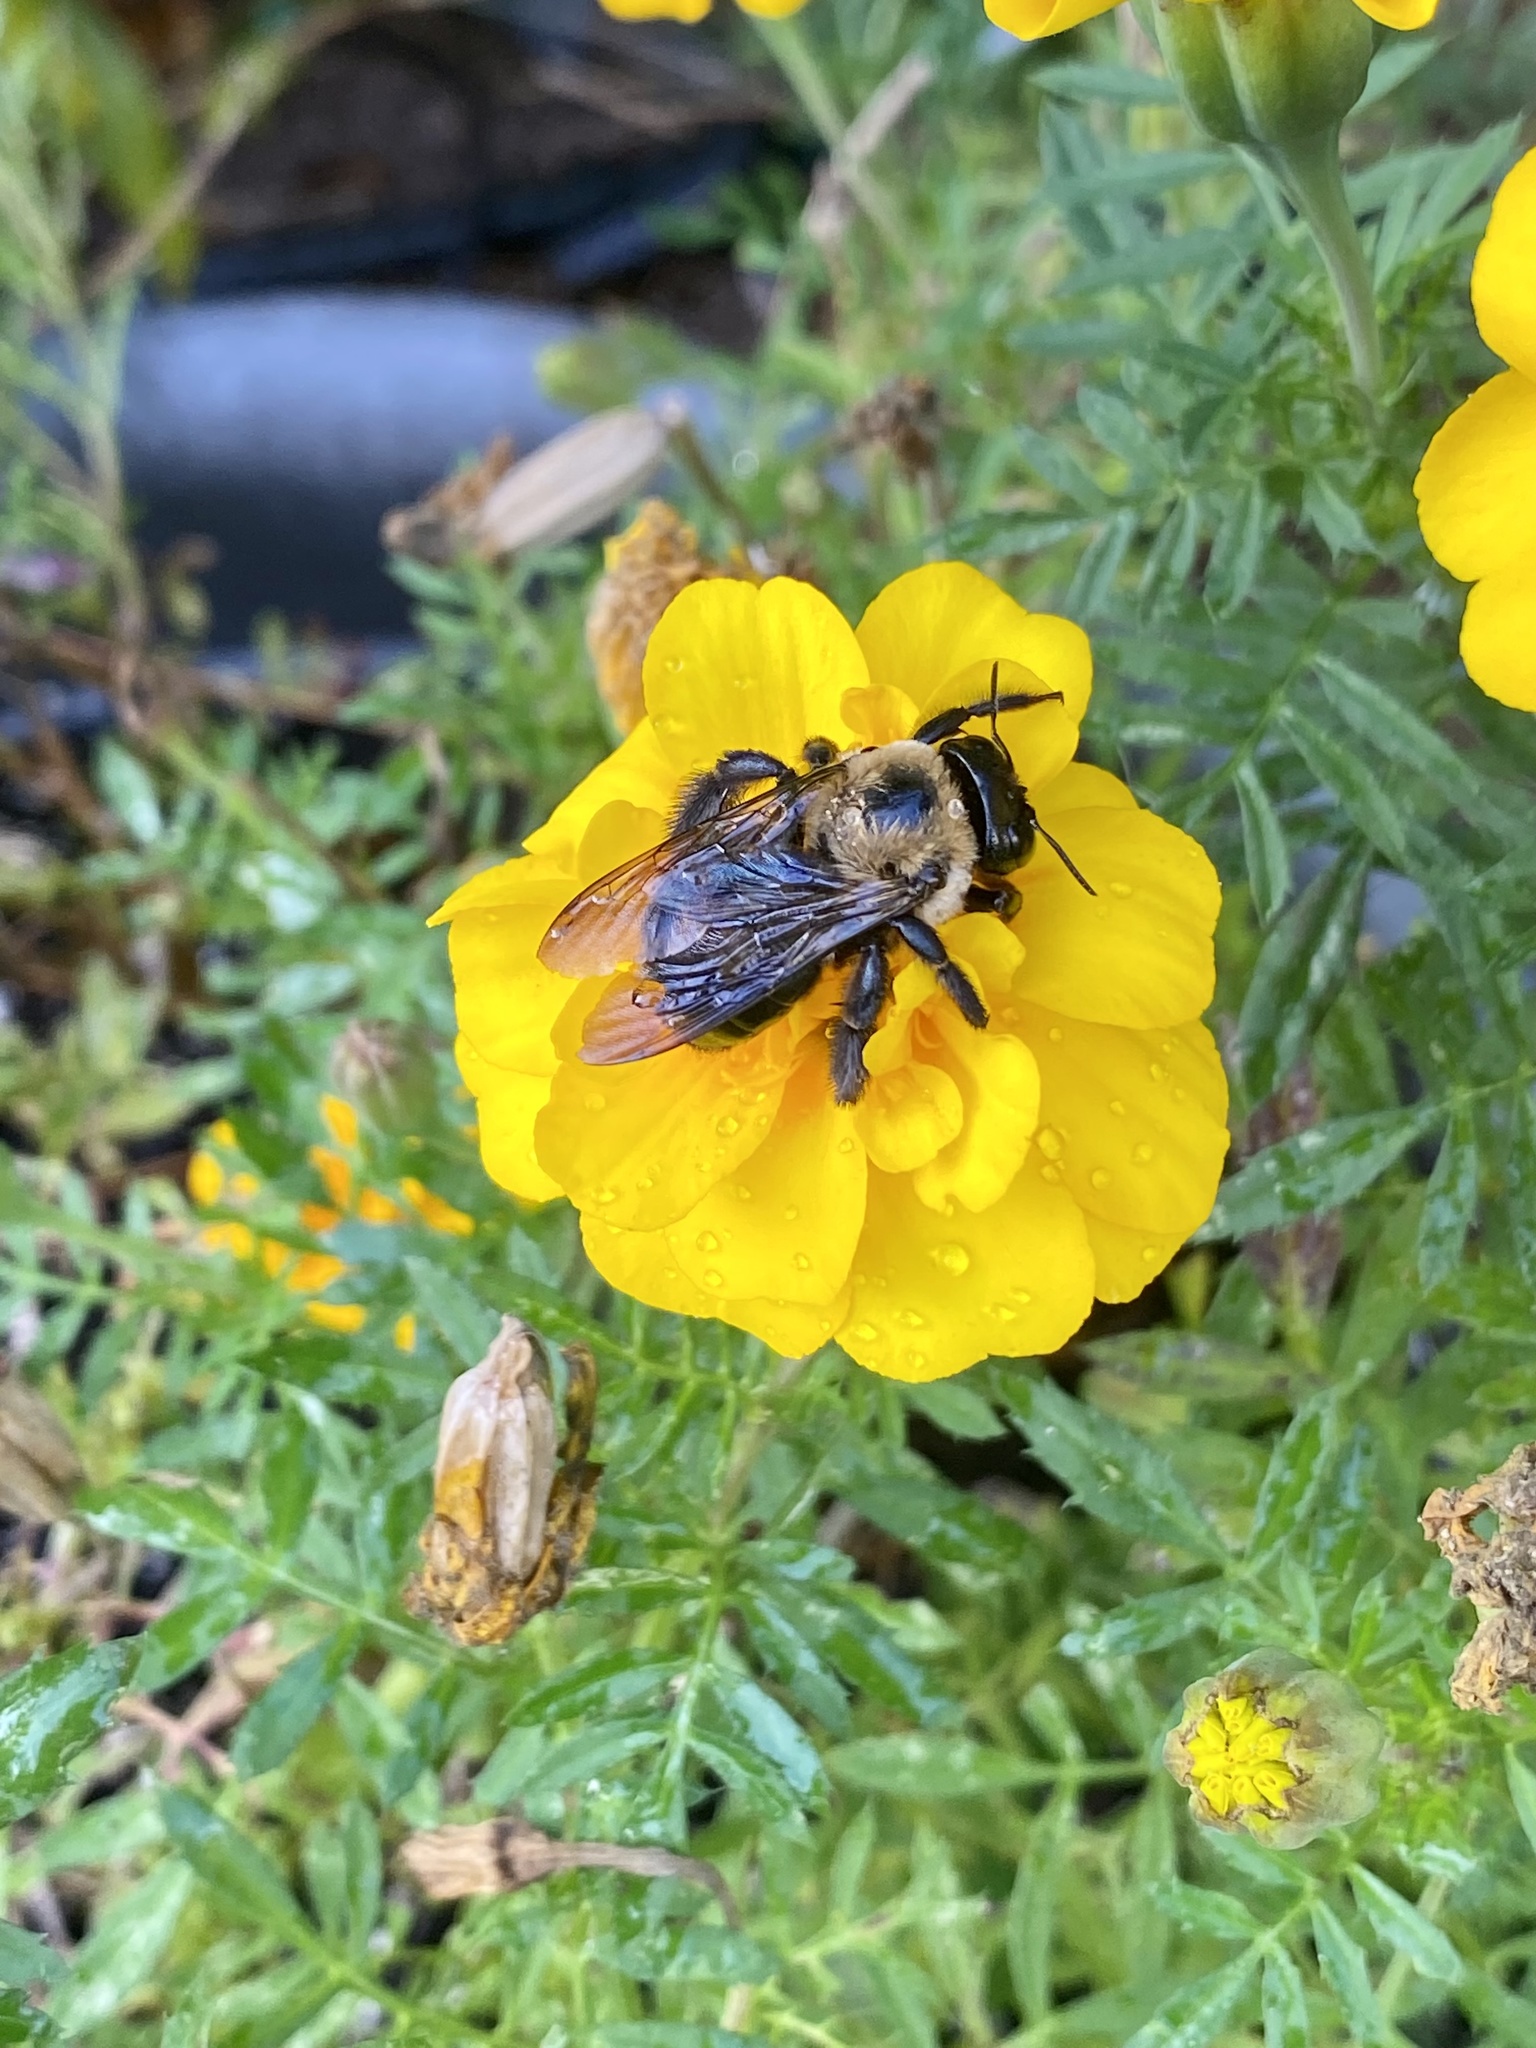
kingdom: Animalia
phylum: Arthropoda
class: Insecta
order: Hymenoptera
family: Apidae
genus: Xylocopa
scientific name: Xylocopa virginica
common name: Carpenter bee
